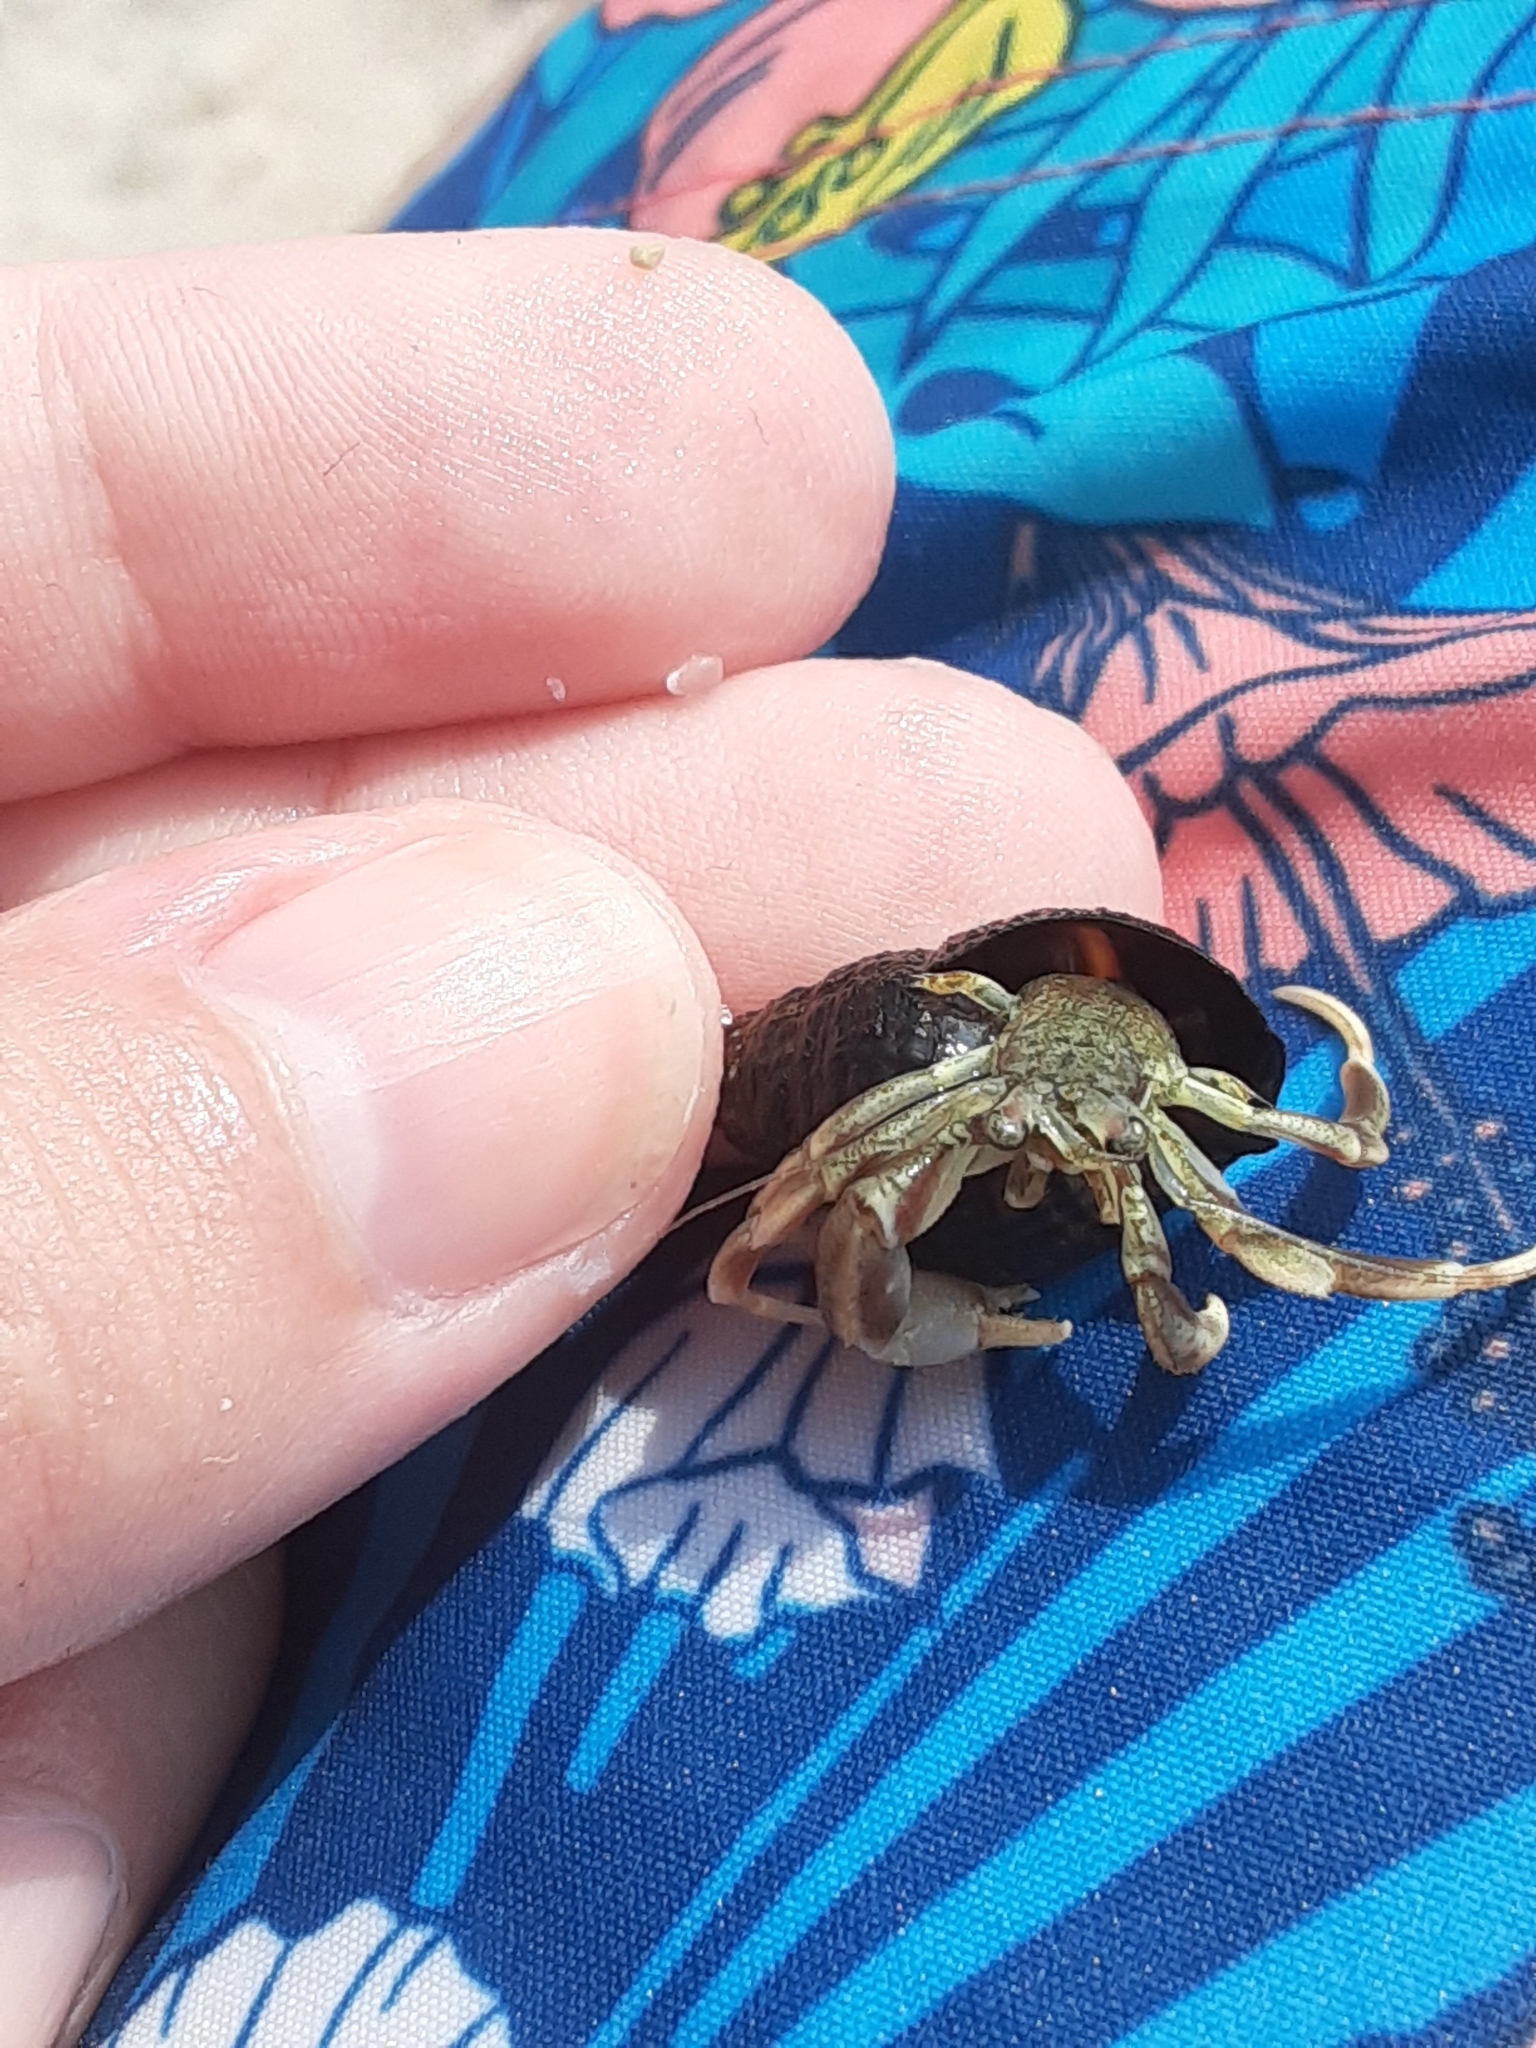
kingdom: Animalia
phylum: Arthropoda
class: Malacostraca
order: Decapoda
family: Paguridae
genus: Pagurus
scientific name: Pagurus longicarpus
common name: Long-armed hermit crab
